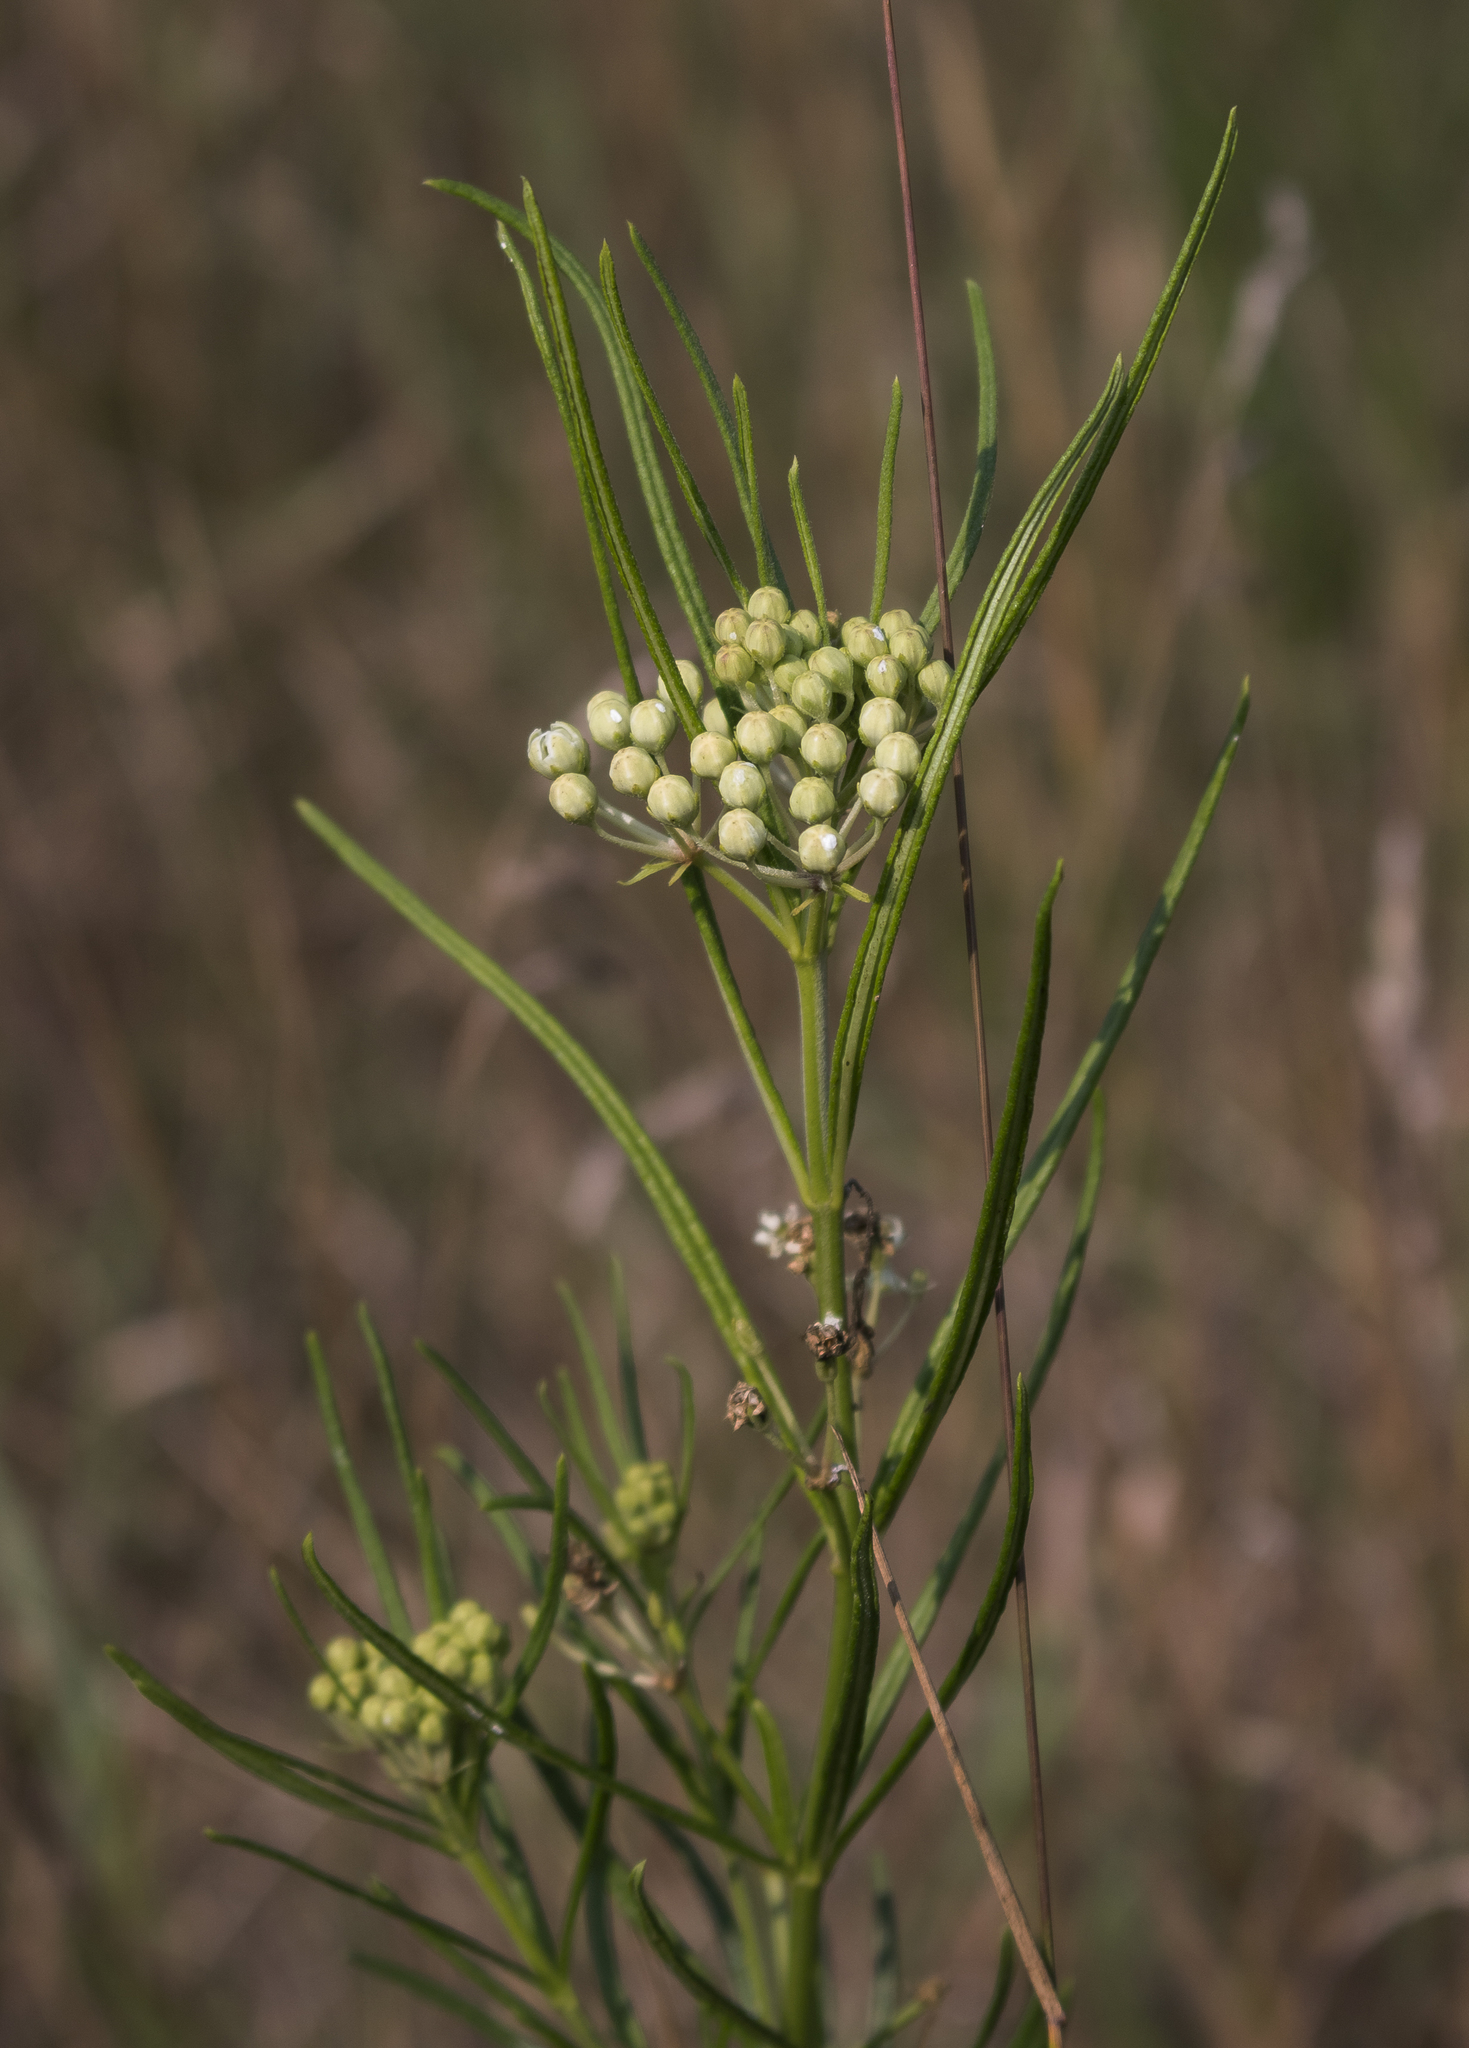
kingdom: Plantae
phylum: Tracheophyta
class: Magnoliopsida
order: Gentianales
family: Apocynaceae
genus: Asclepias
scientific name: Asclepias verticillata
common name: Eastern whorled milkweed
